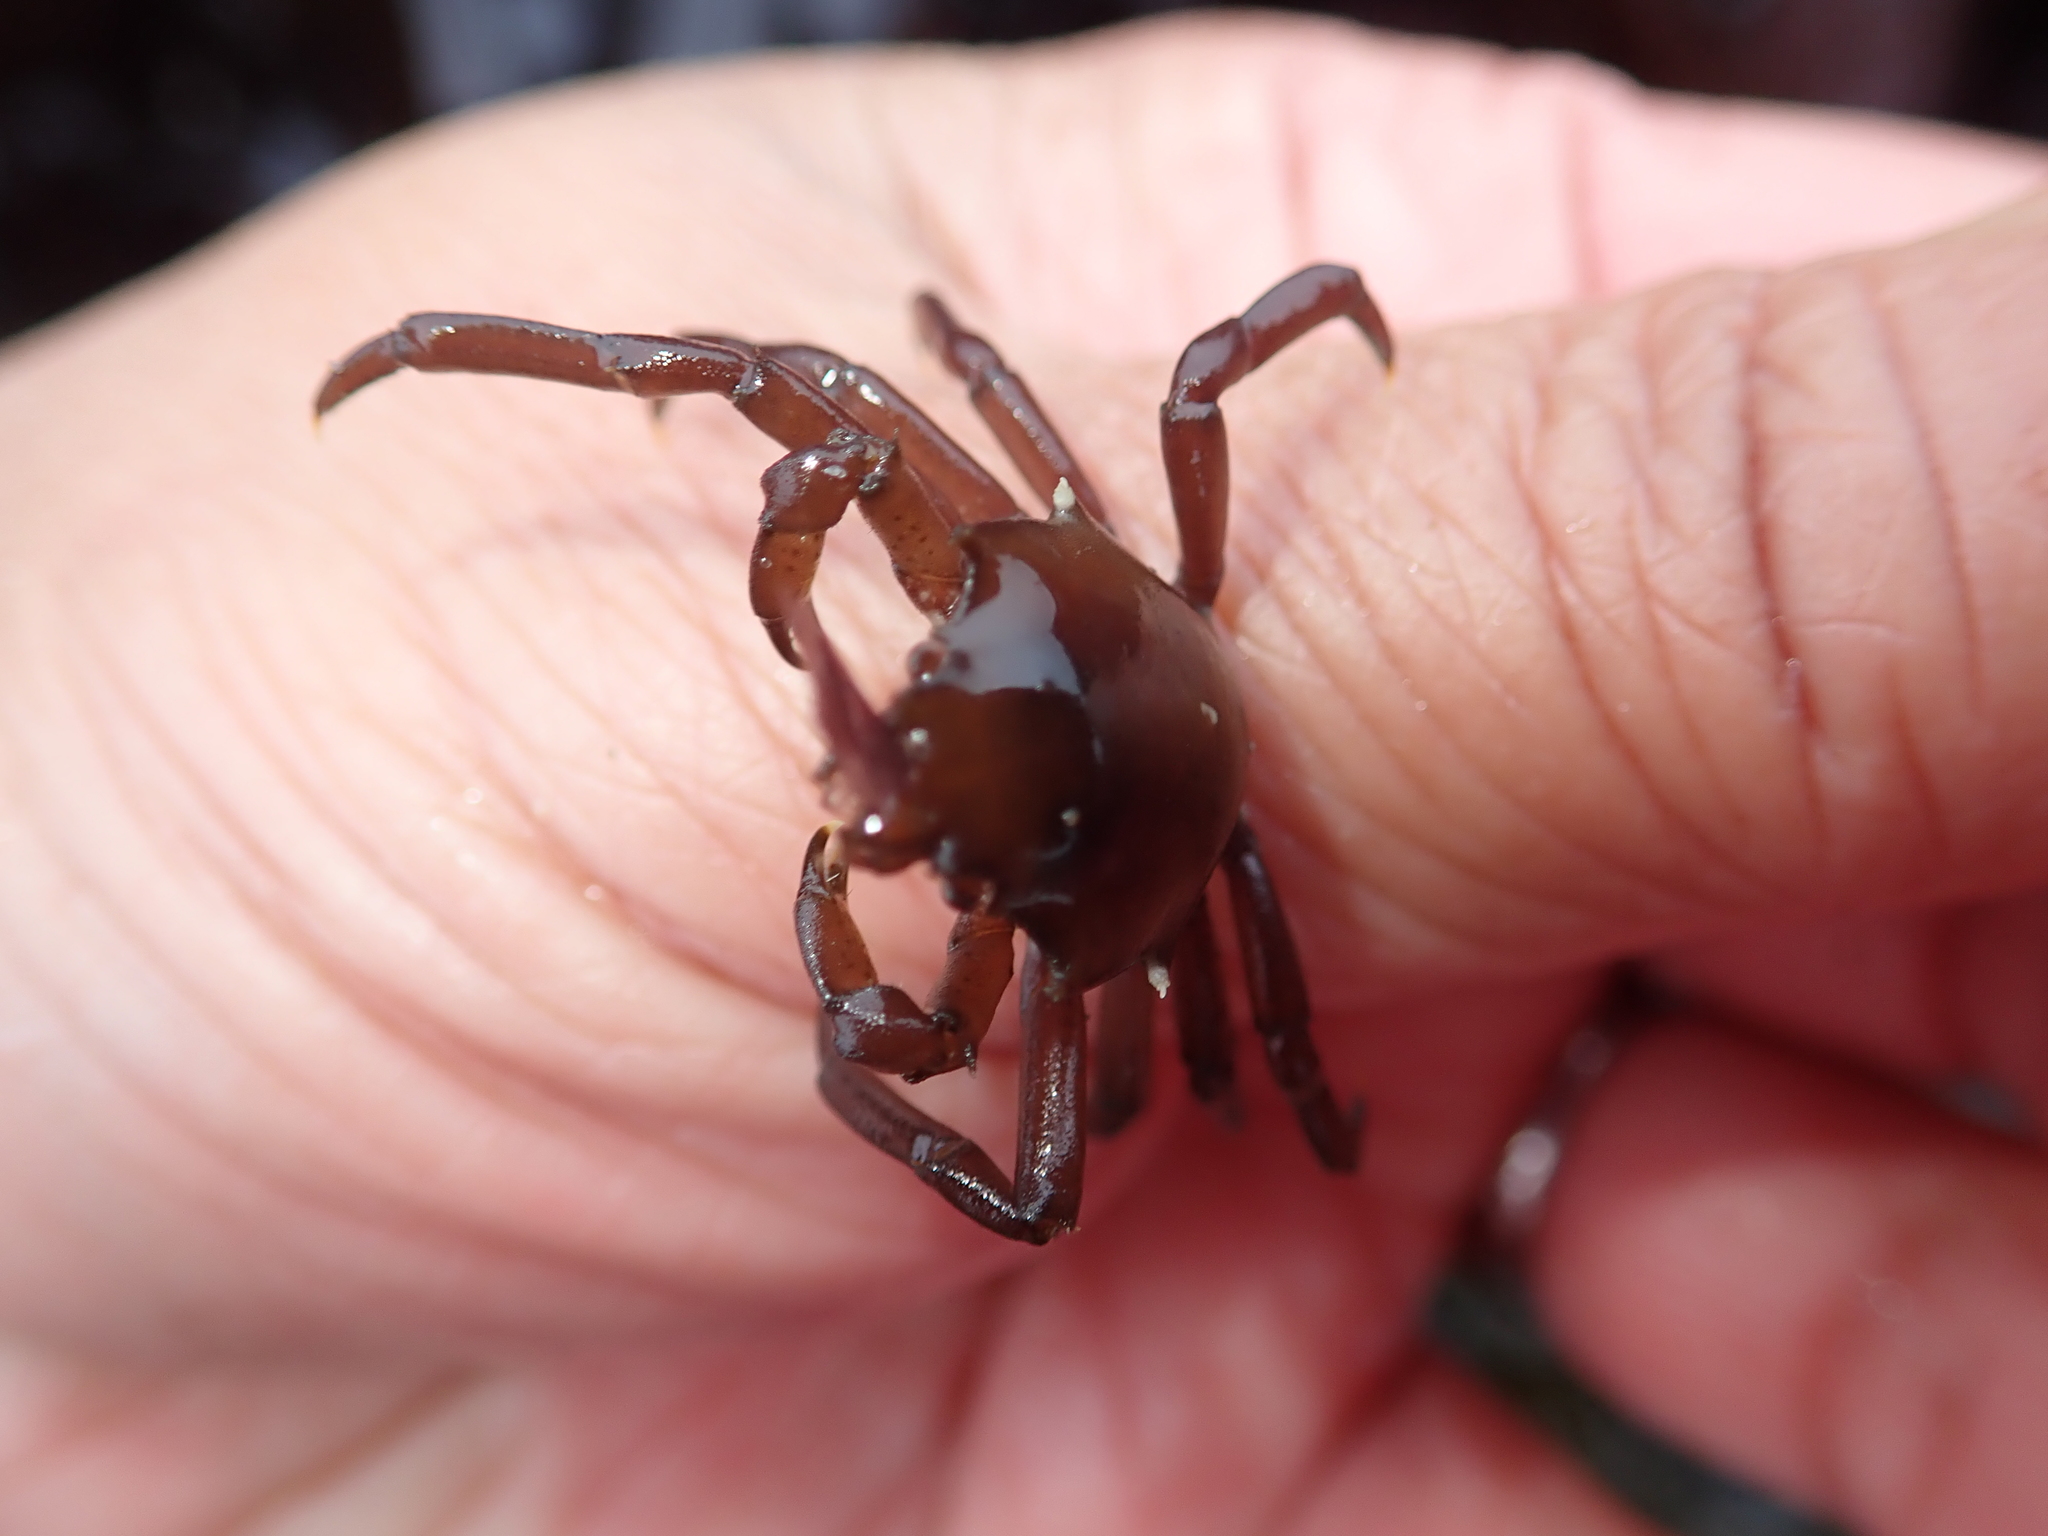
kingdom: Animalia
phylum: Arthropoda
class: Malacostraca
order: Decapoda
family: Epialtidae
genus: Pugettia
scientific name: Pugettia producta
